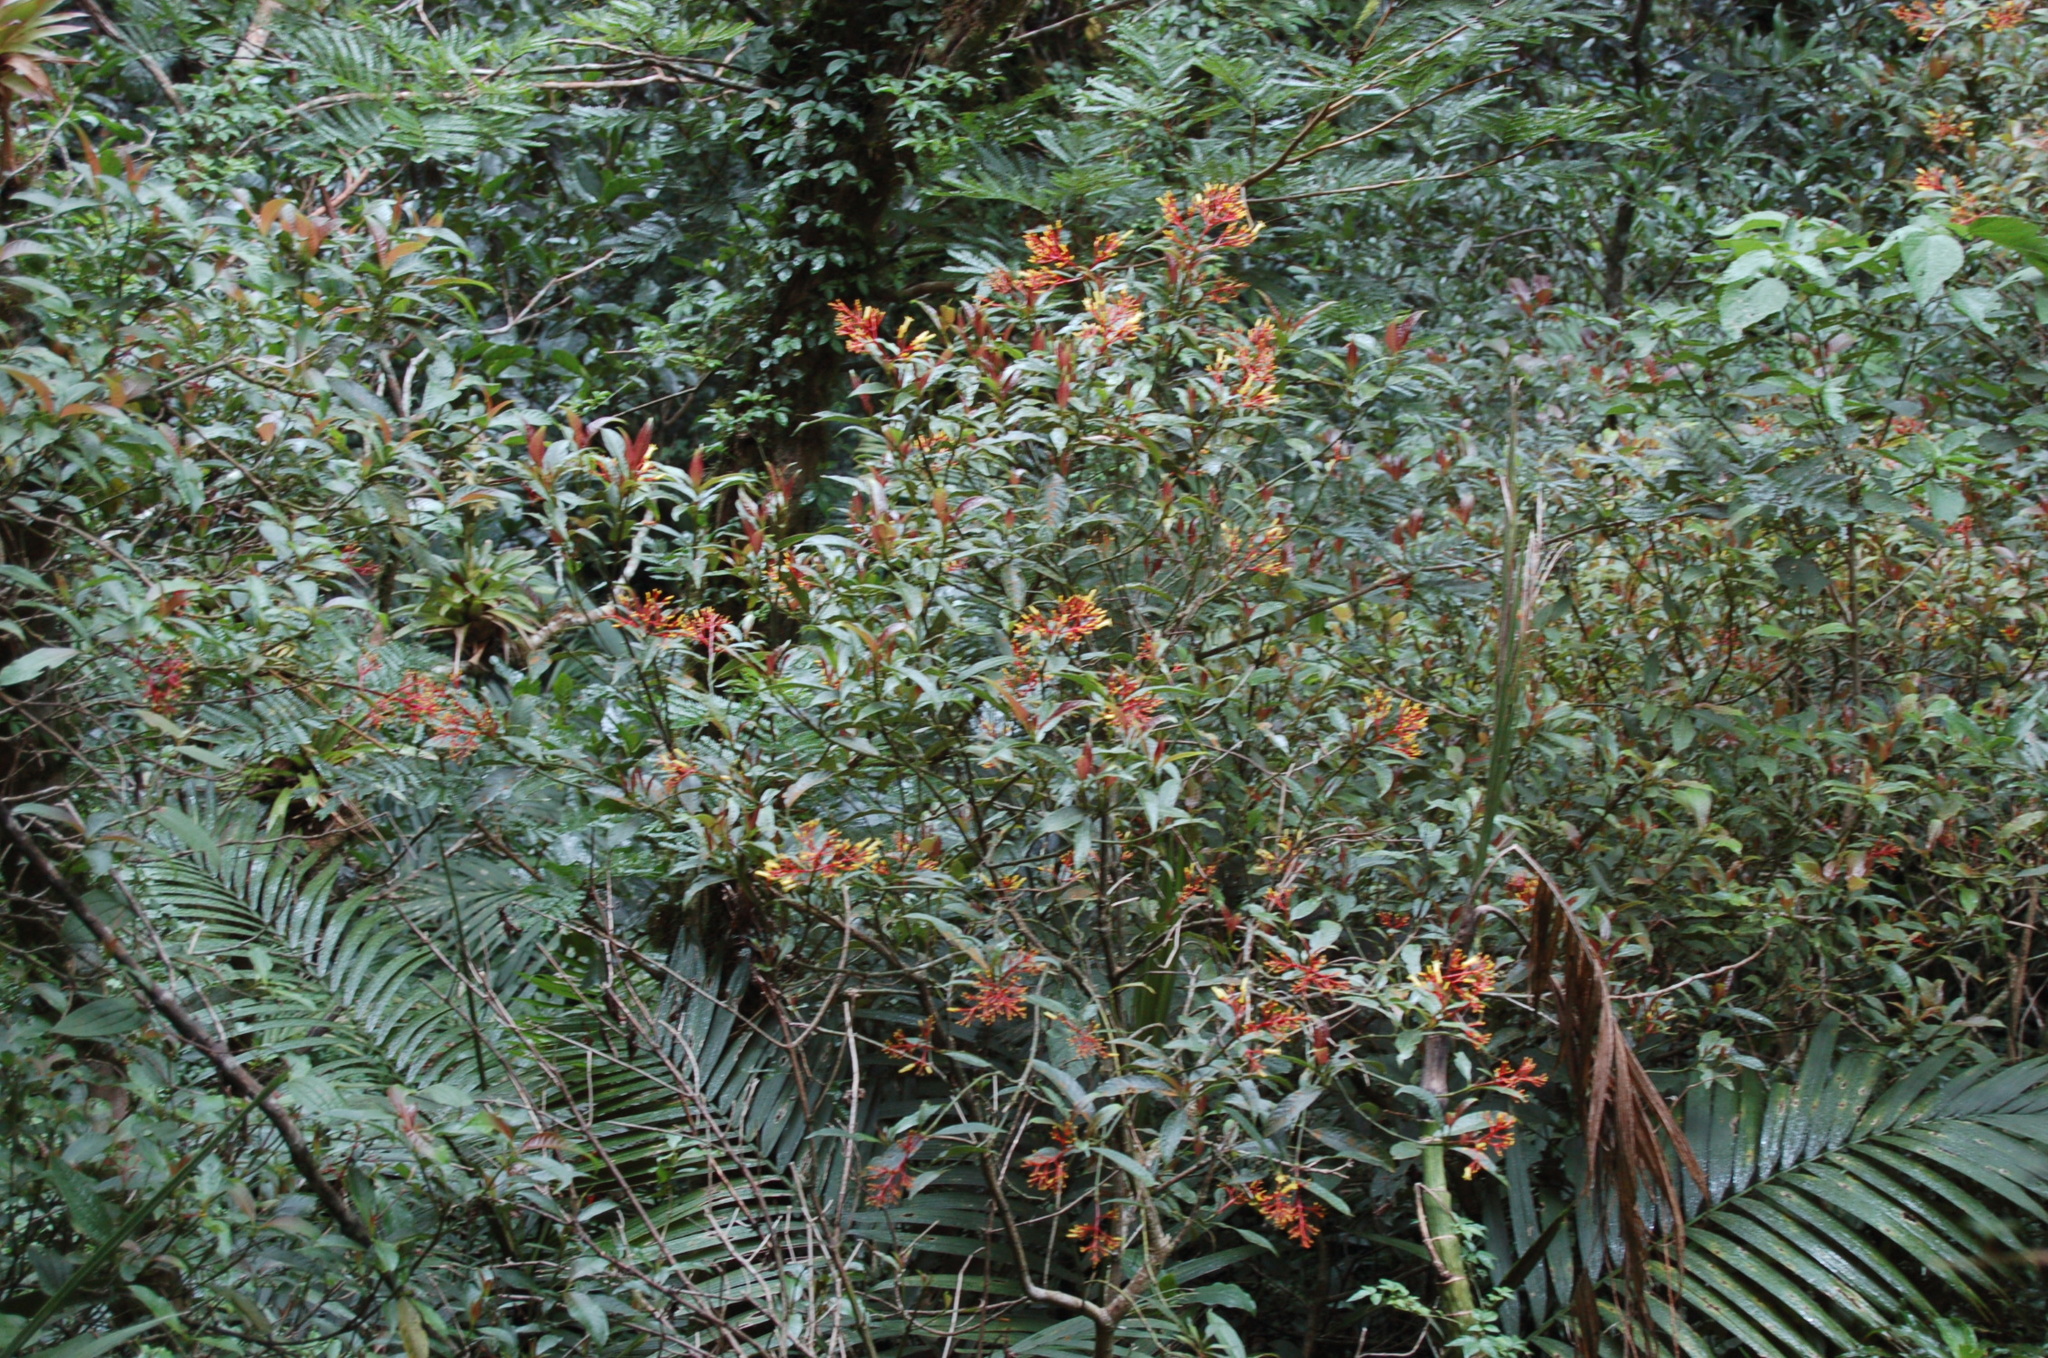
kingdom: Plantae
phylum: Tracheophyta
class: Magnoliopsida
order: Gentianales
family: Rubiaceae
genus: Palicourea
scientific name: Palicourea padifolia
